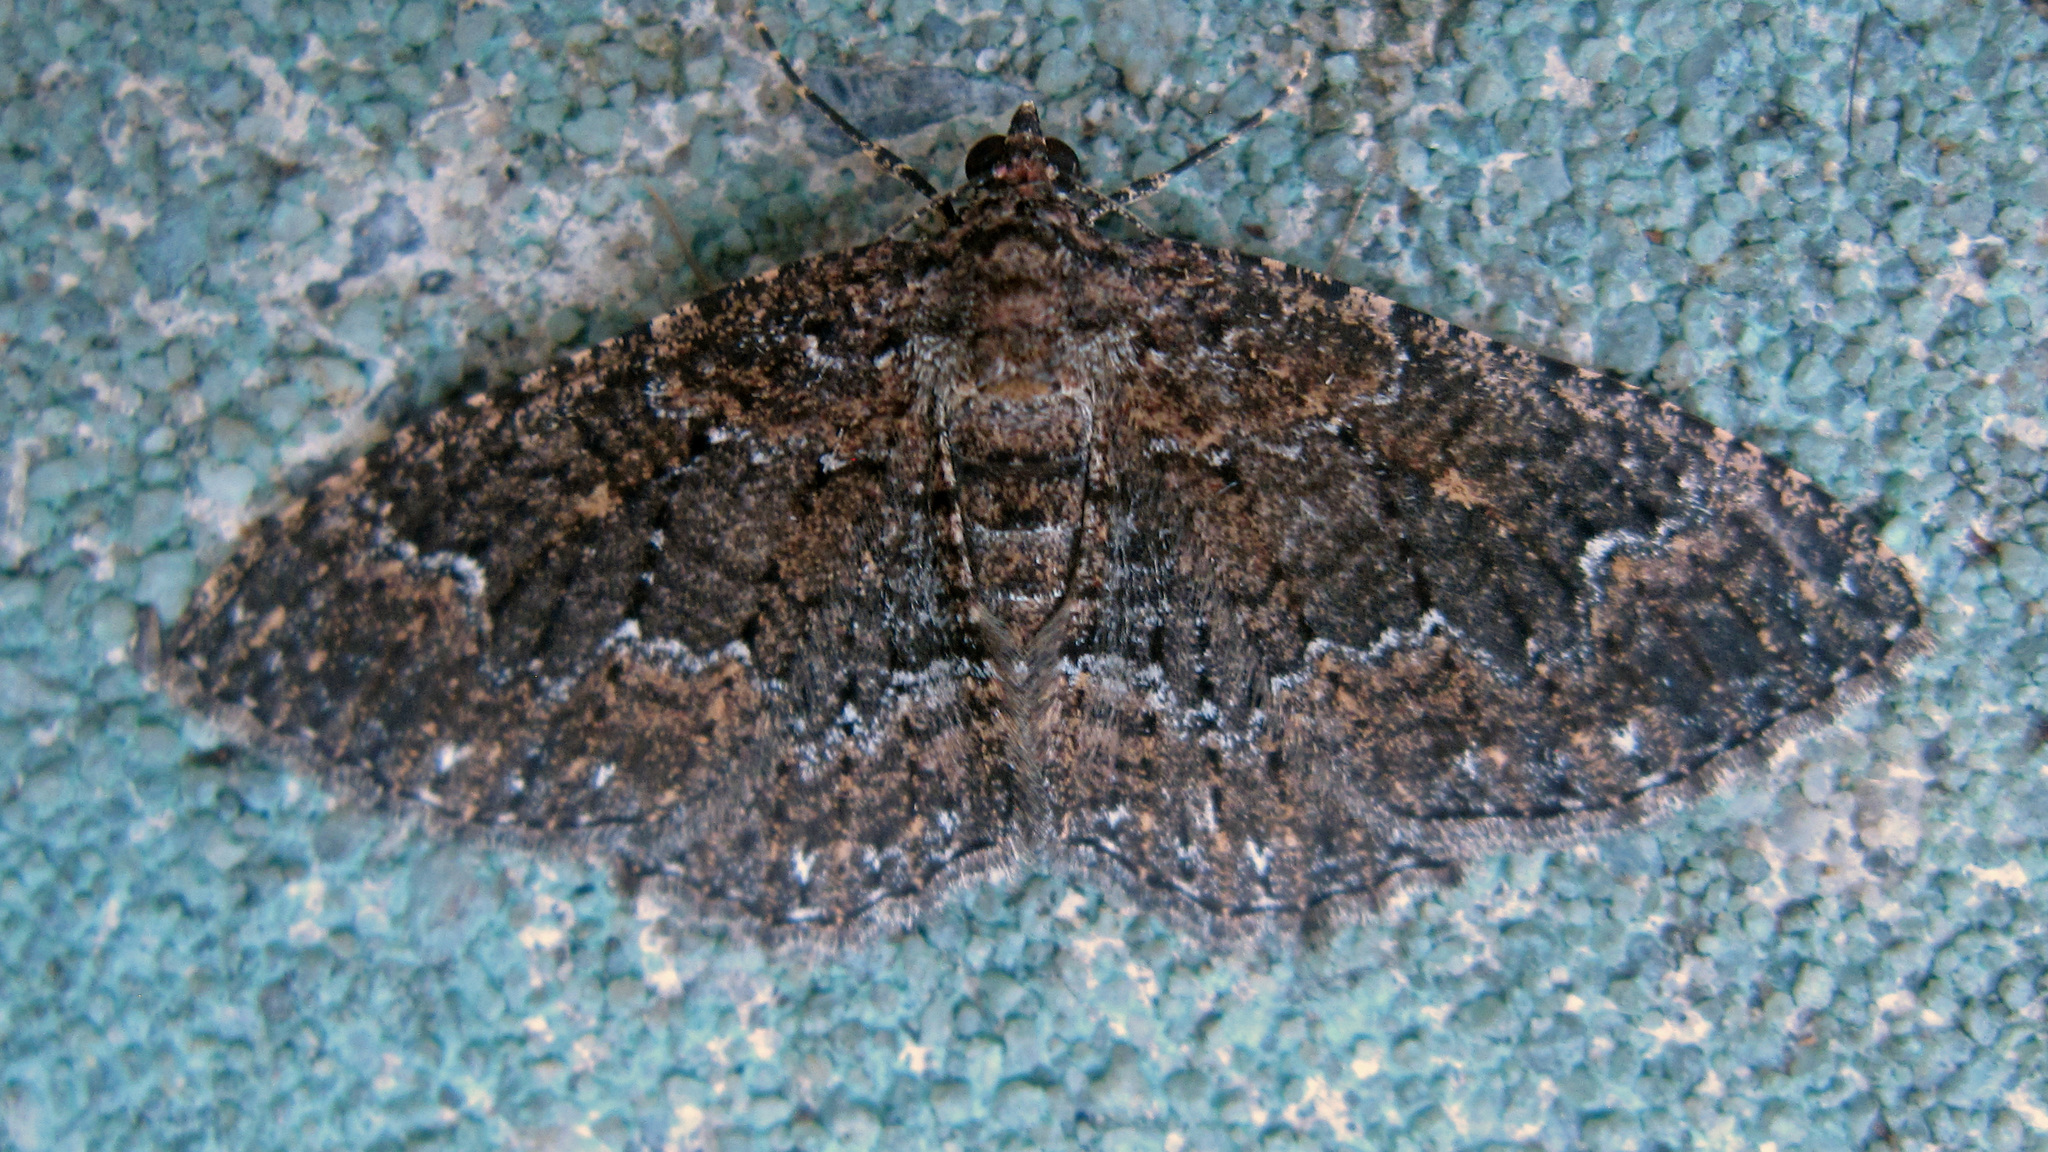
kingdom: Animalia
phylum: Arthropoda
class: Insecta
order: Lepidoptera
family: Geometridae
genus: Disclisioprocta
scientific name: Disclisioprocta stellata
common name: Somber carpet
